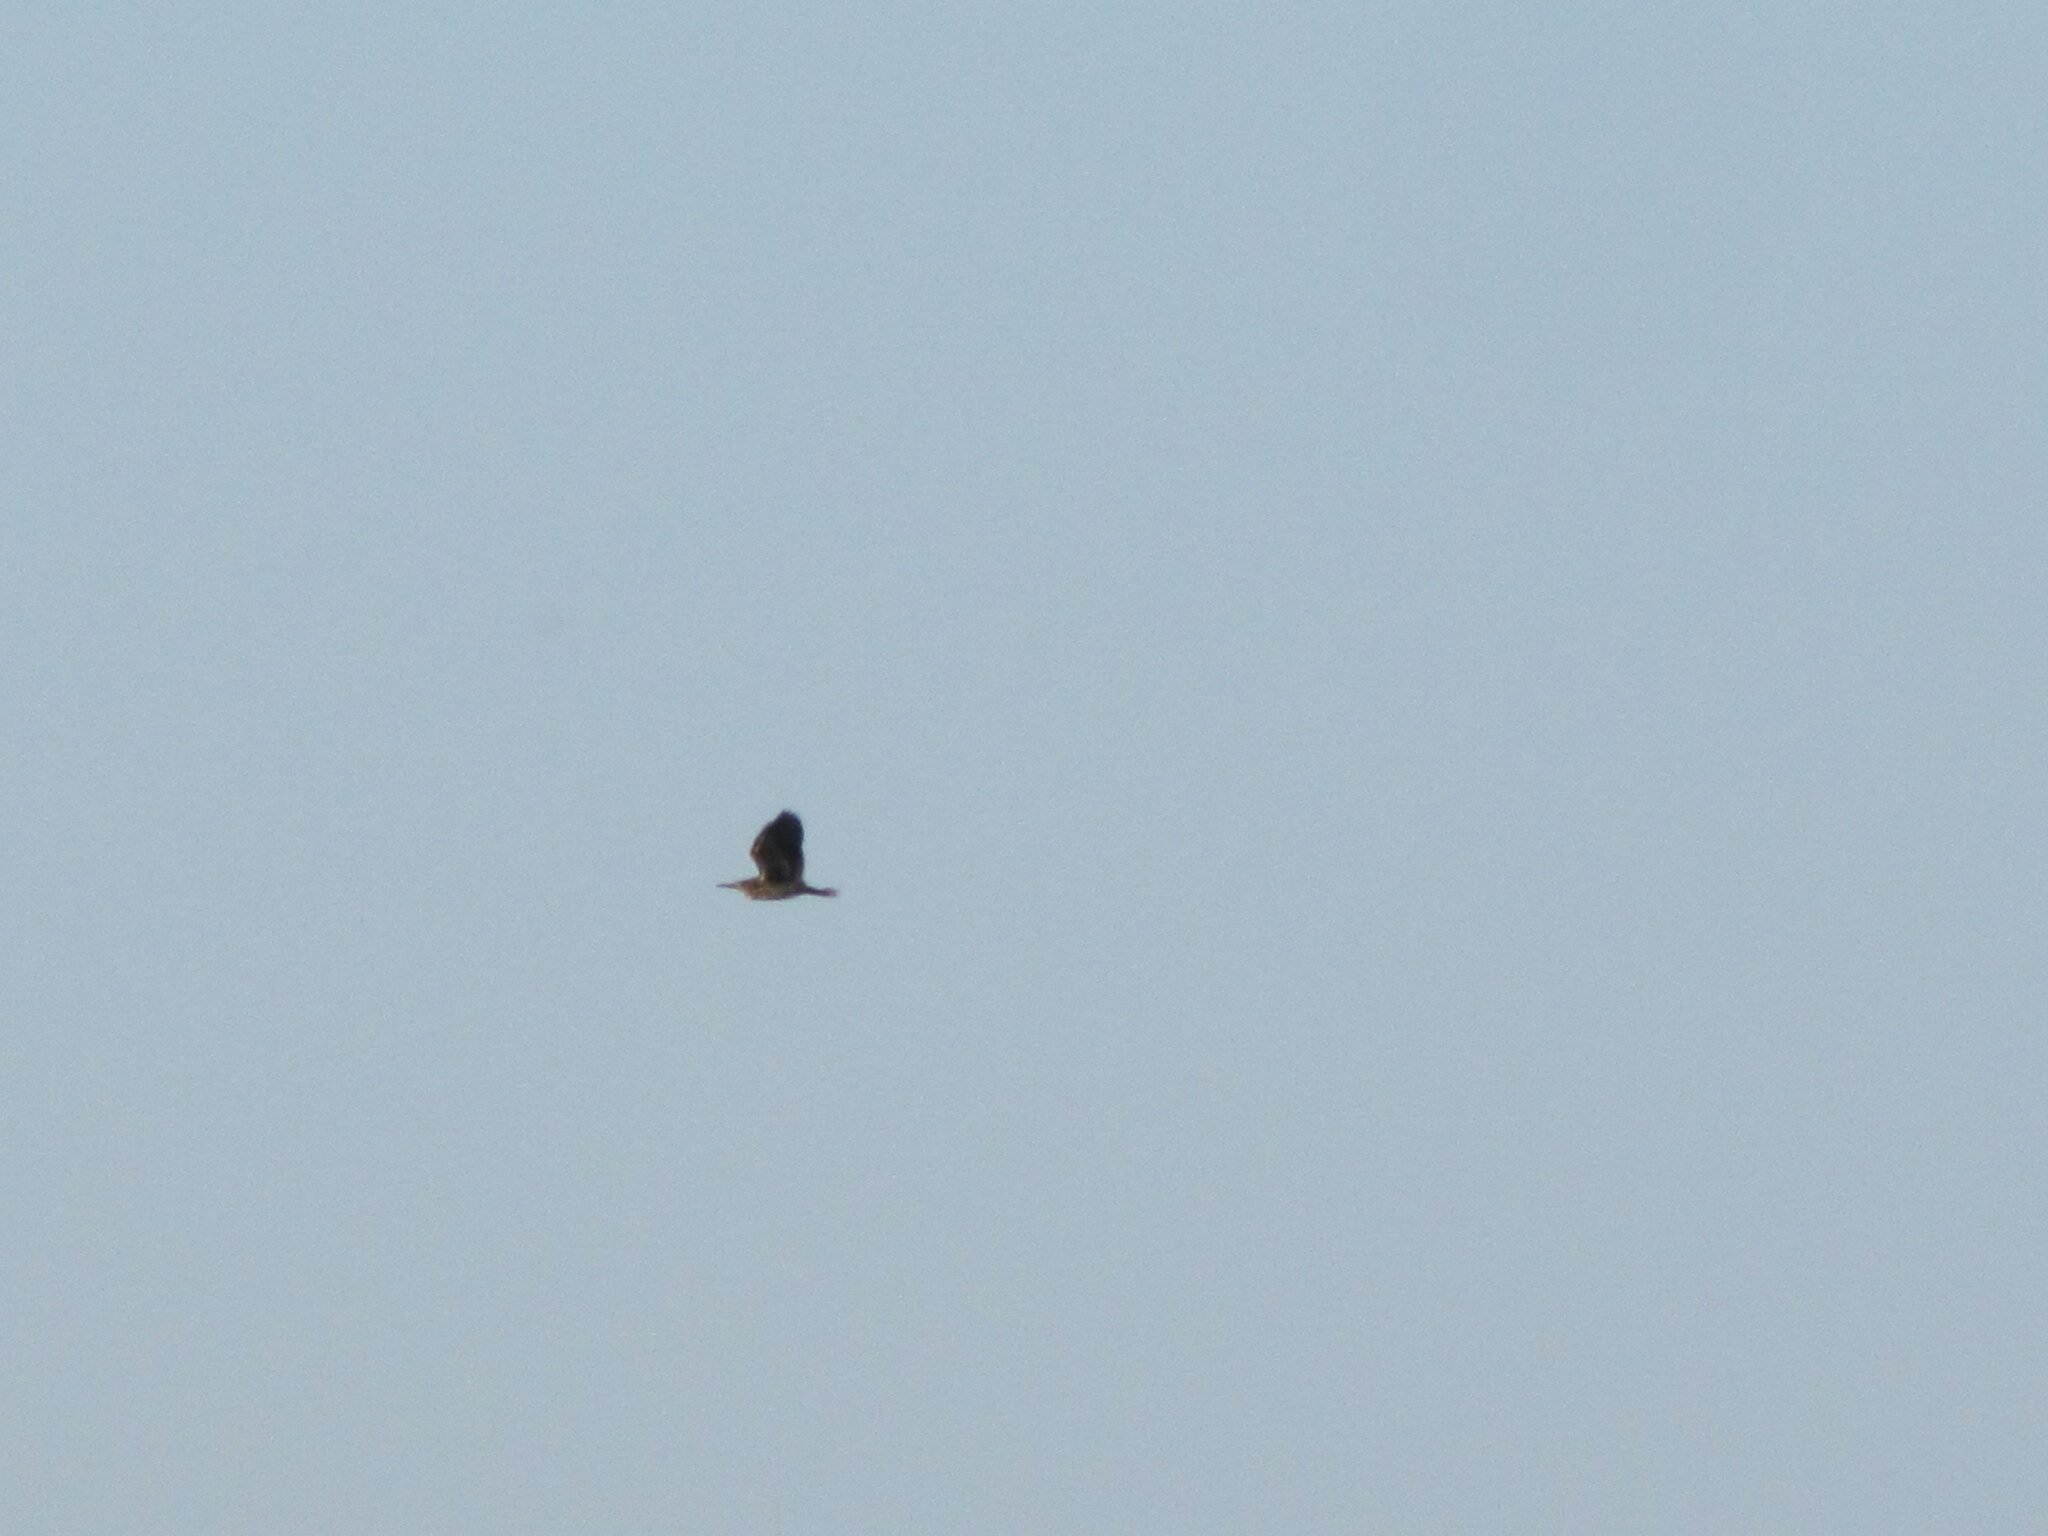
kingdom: Animalia
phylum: Chordata
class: Aves
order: Pelecaniformes
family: Ardeidae
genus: Butorides
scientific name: Butorides virescens
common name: Green heron
